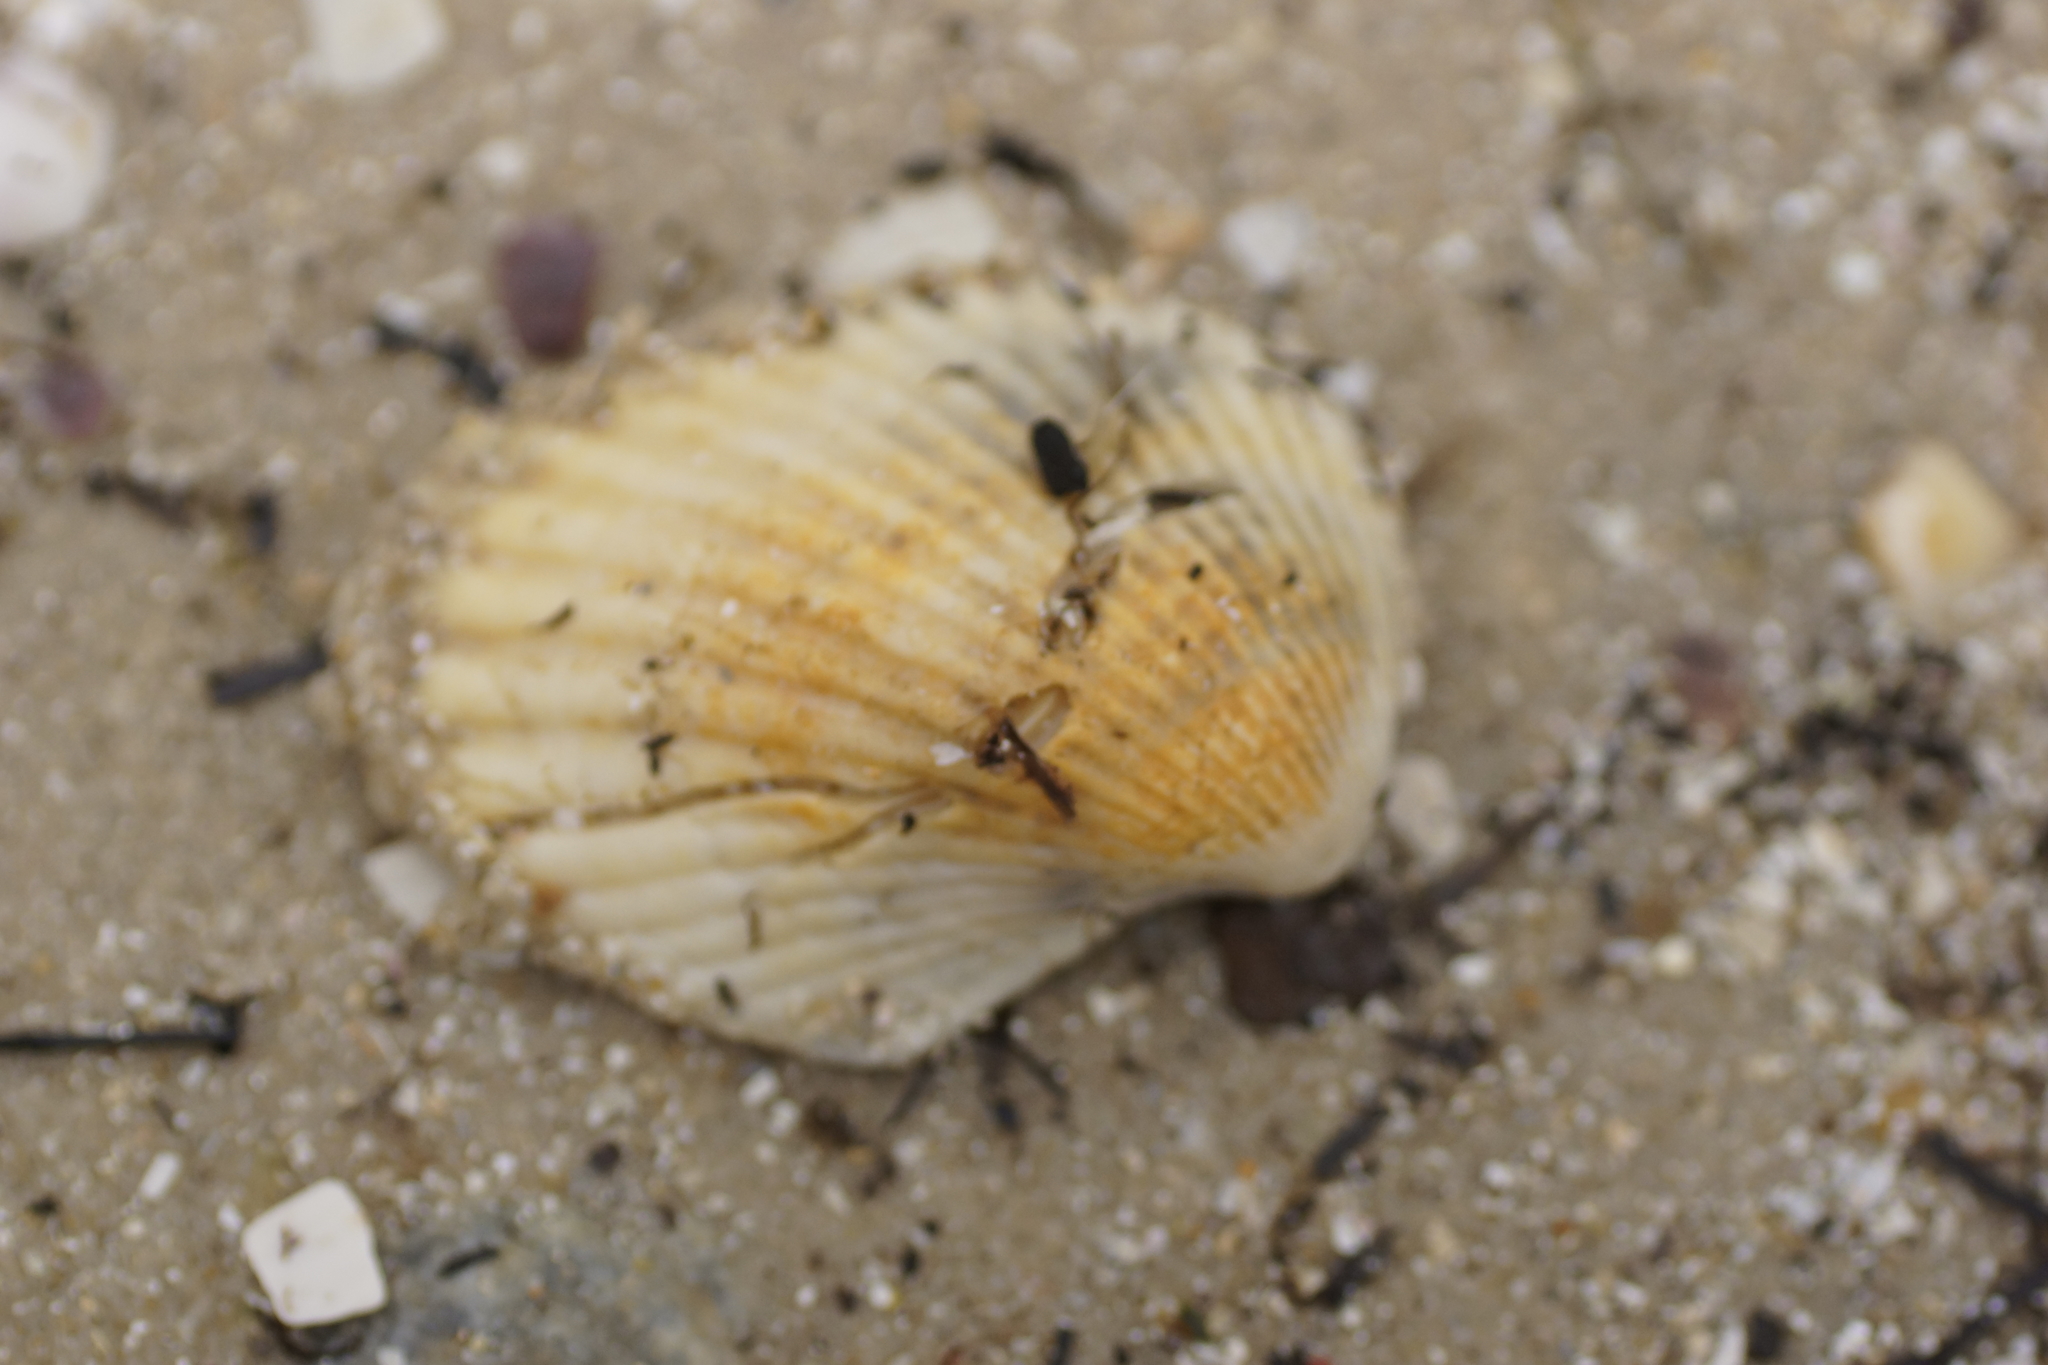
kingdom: Animalia
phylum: Mollusca
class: Bivalvia
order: Arcida
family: Arcidae
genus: Anadara
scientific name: Anadara trapezia
